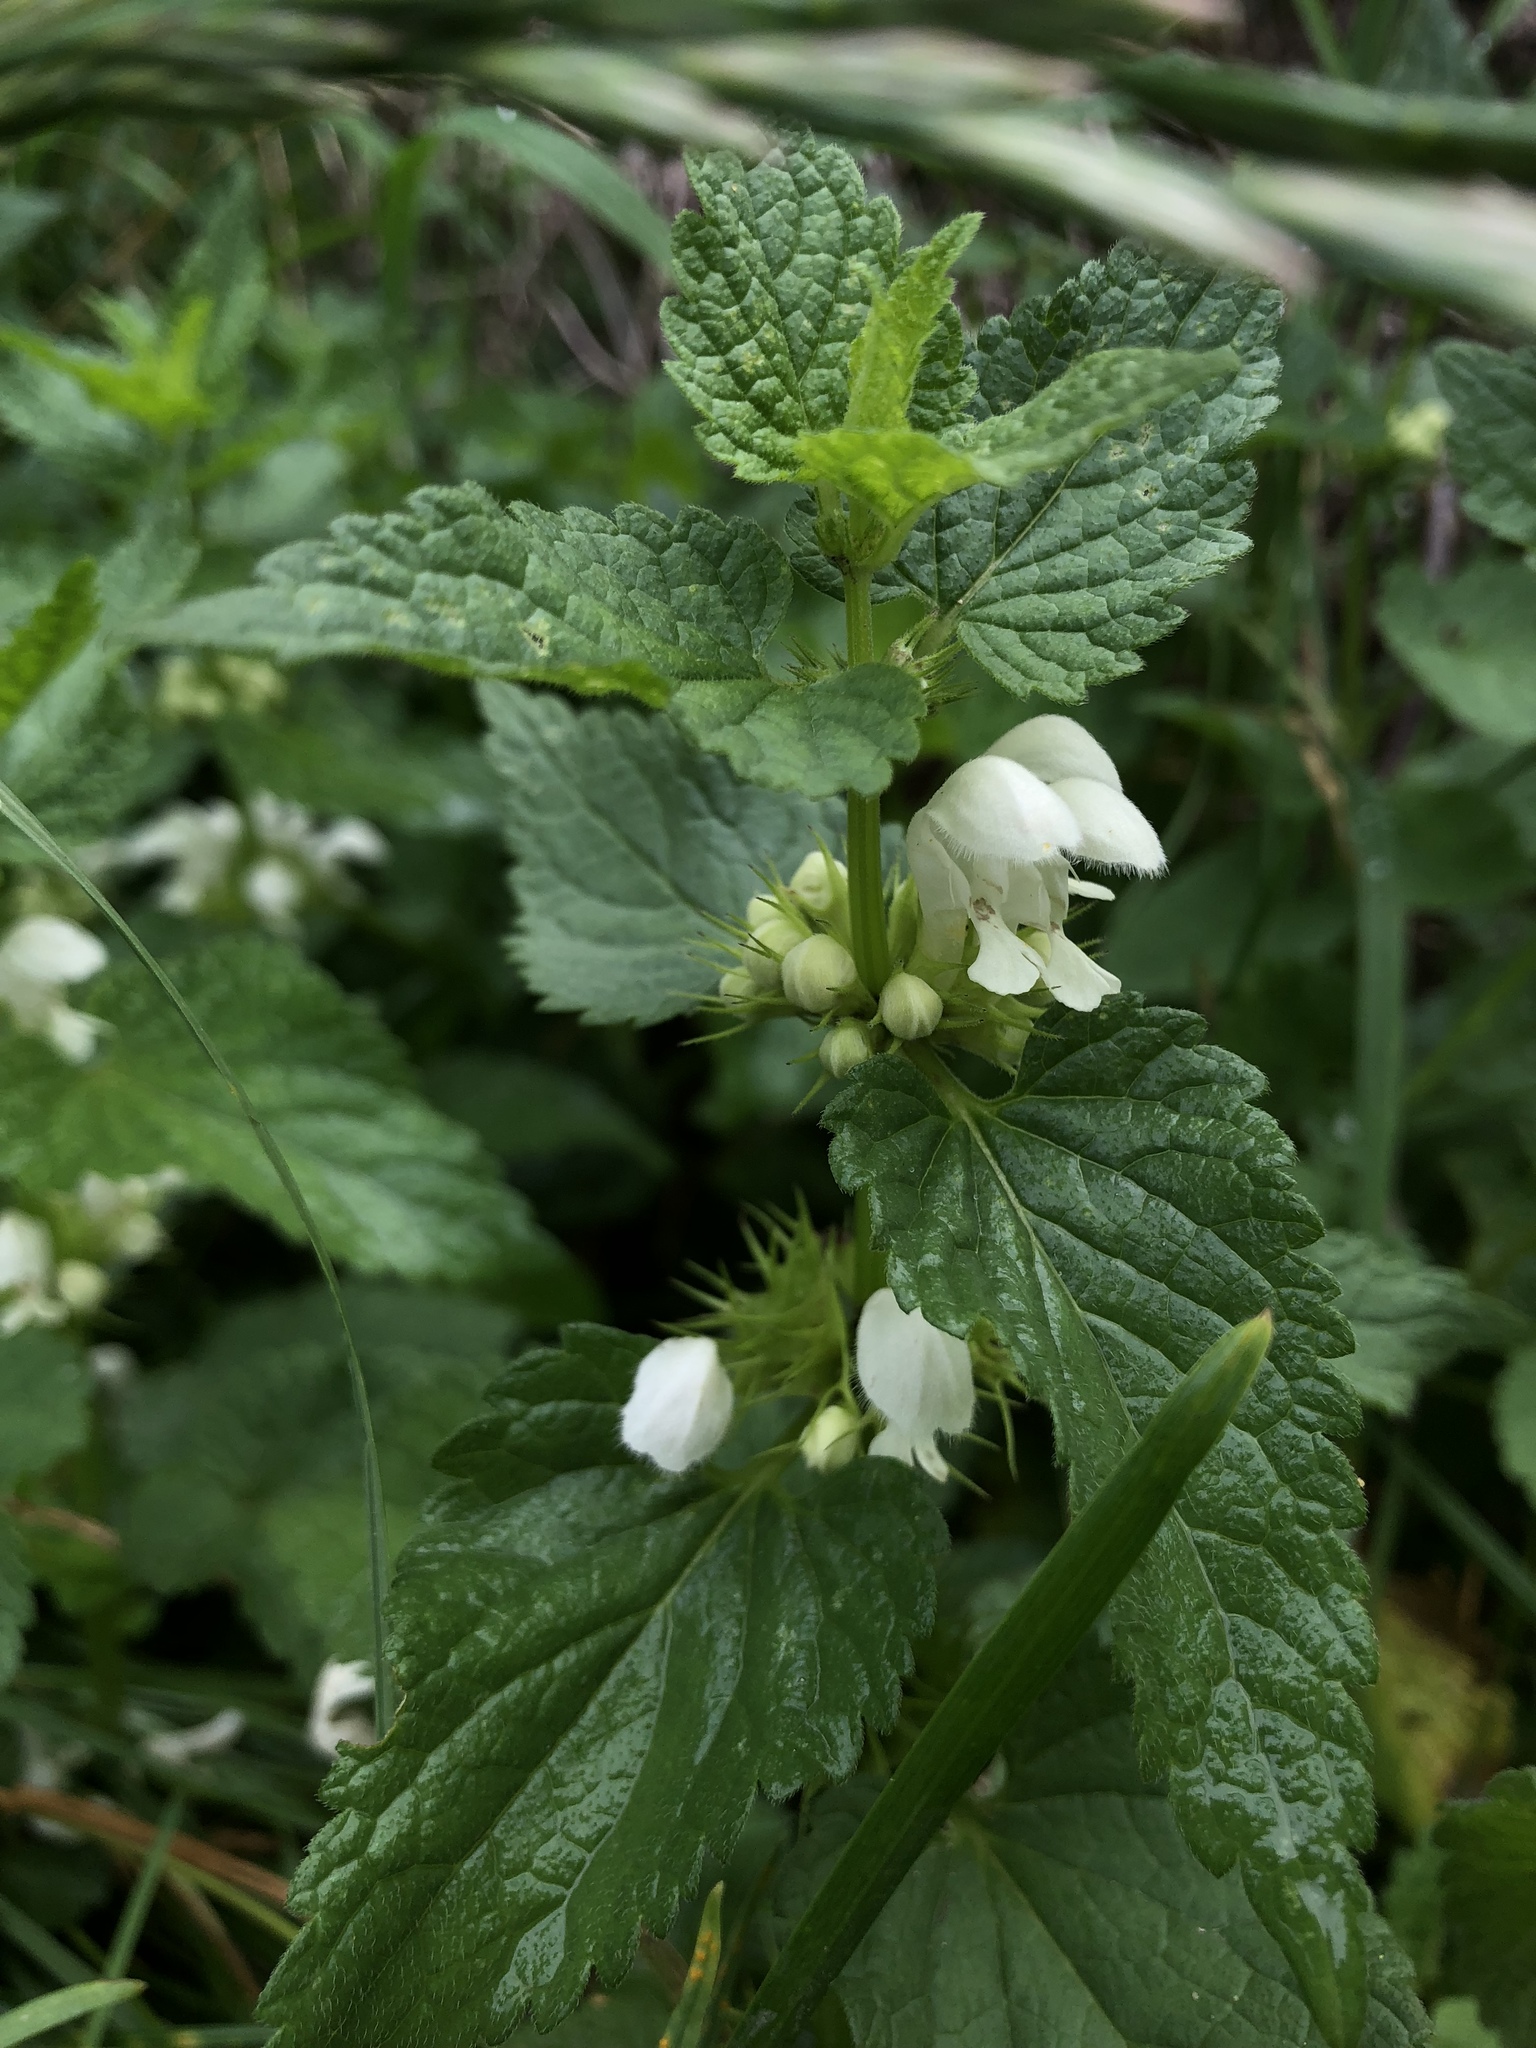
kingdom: Plantae
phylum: Tracheophyta
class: Magnoliopsida
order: Lamiales
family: Lamiaceae
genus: Lamium
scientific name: Lamium album
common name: White dead-nettle
